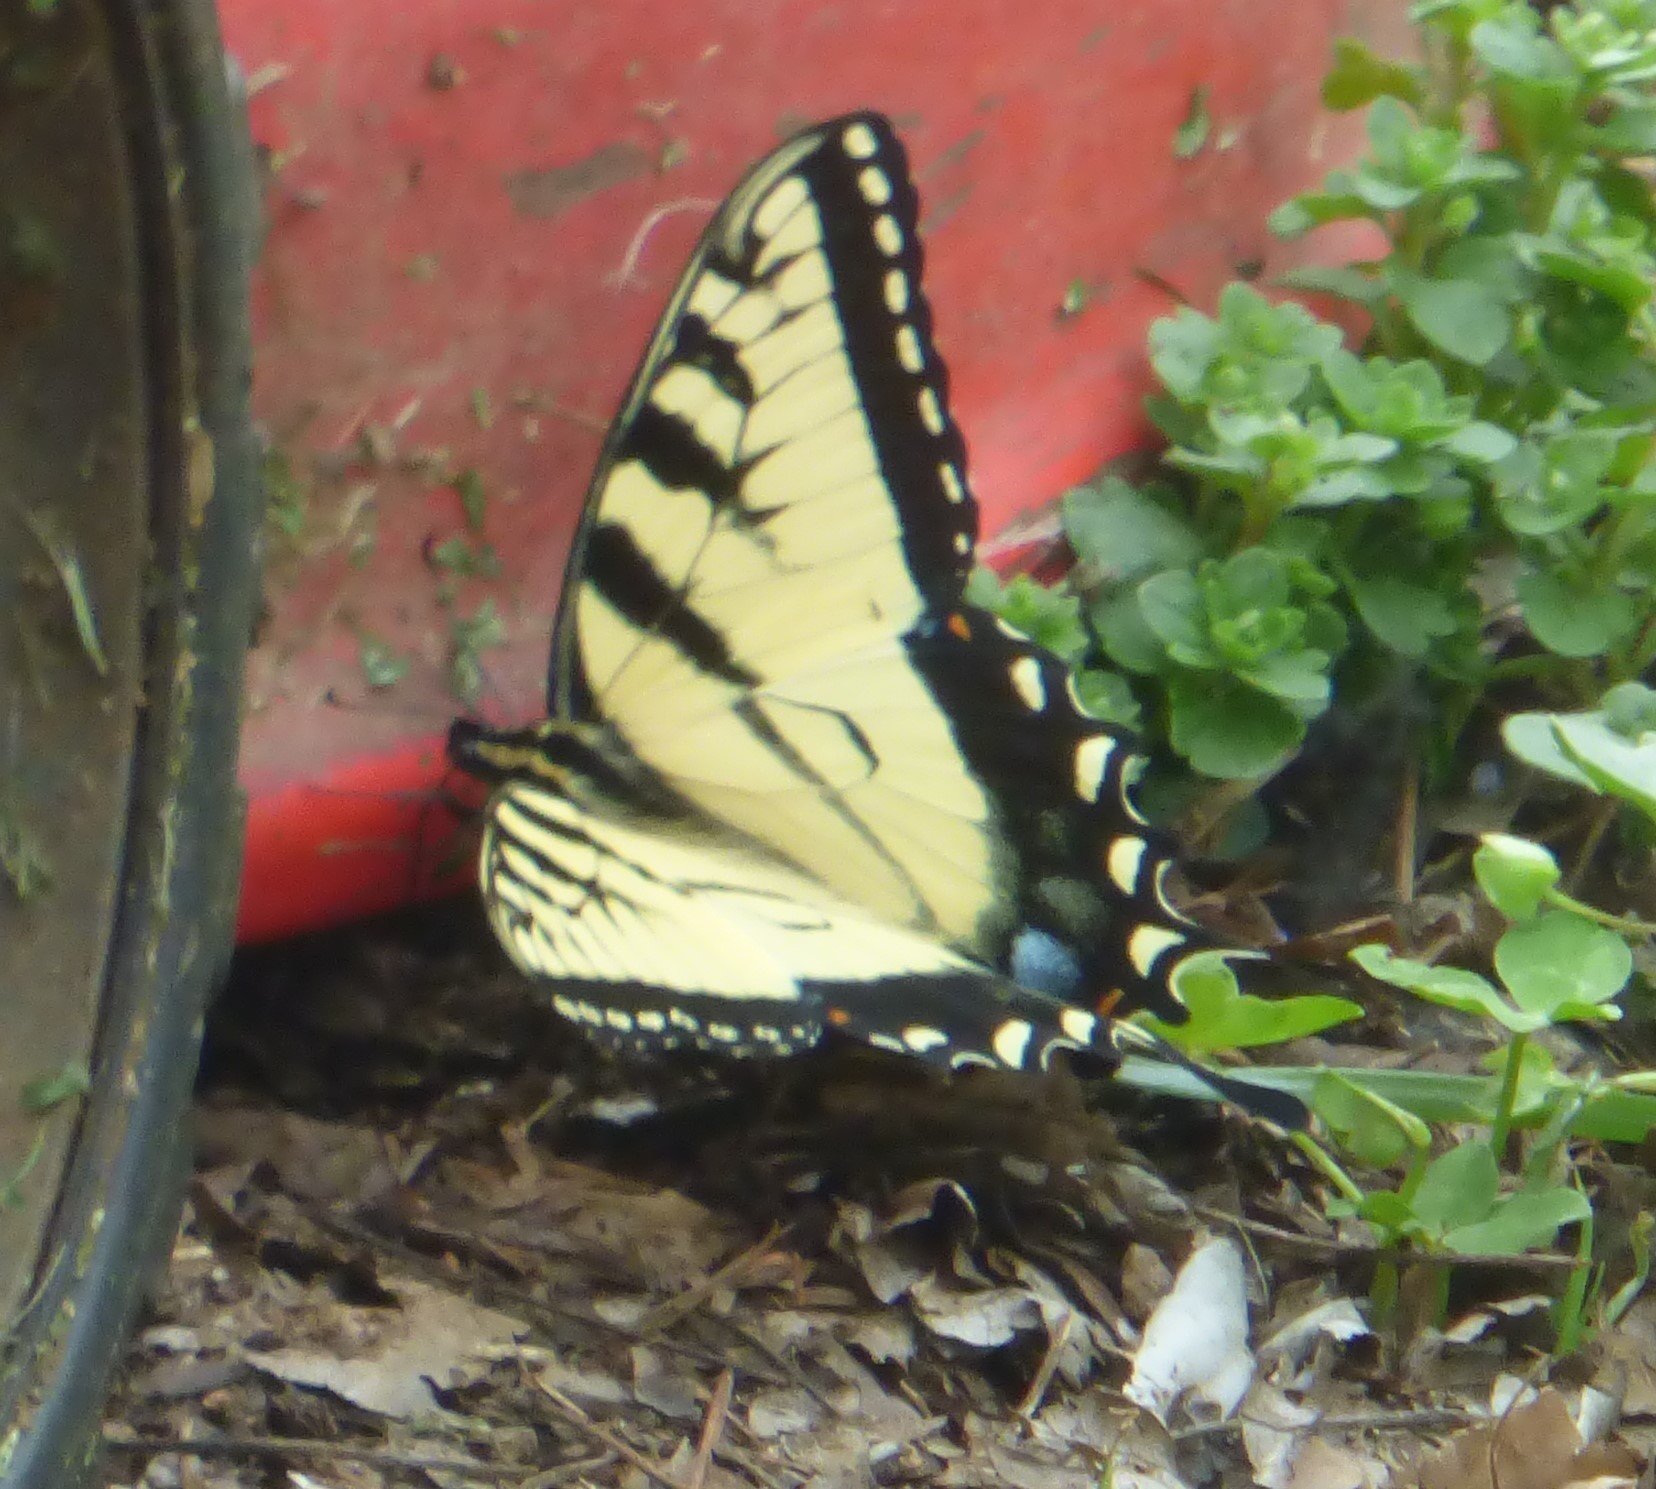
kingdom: Animalia
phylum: Arthropoda
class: Insecta
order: Lepidoptera
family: Papilionidae
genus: Papilio
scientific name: Papilio glaucus
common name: Tiger swallowtail
